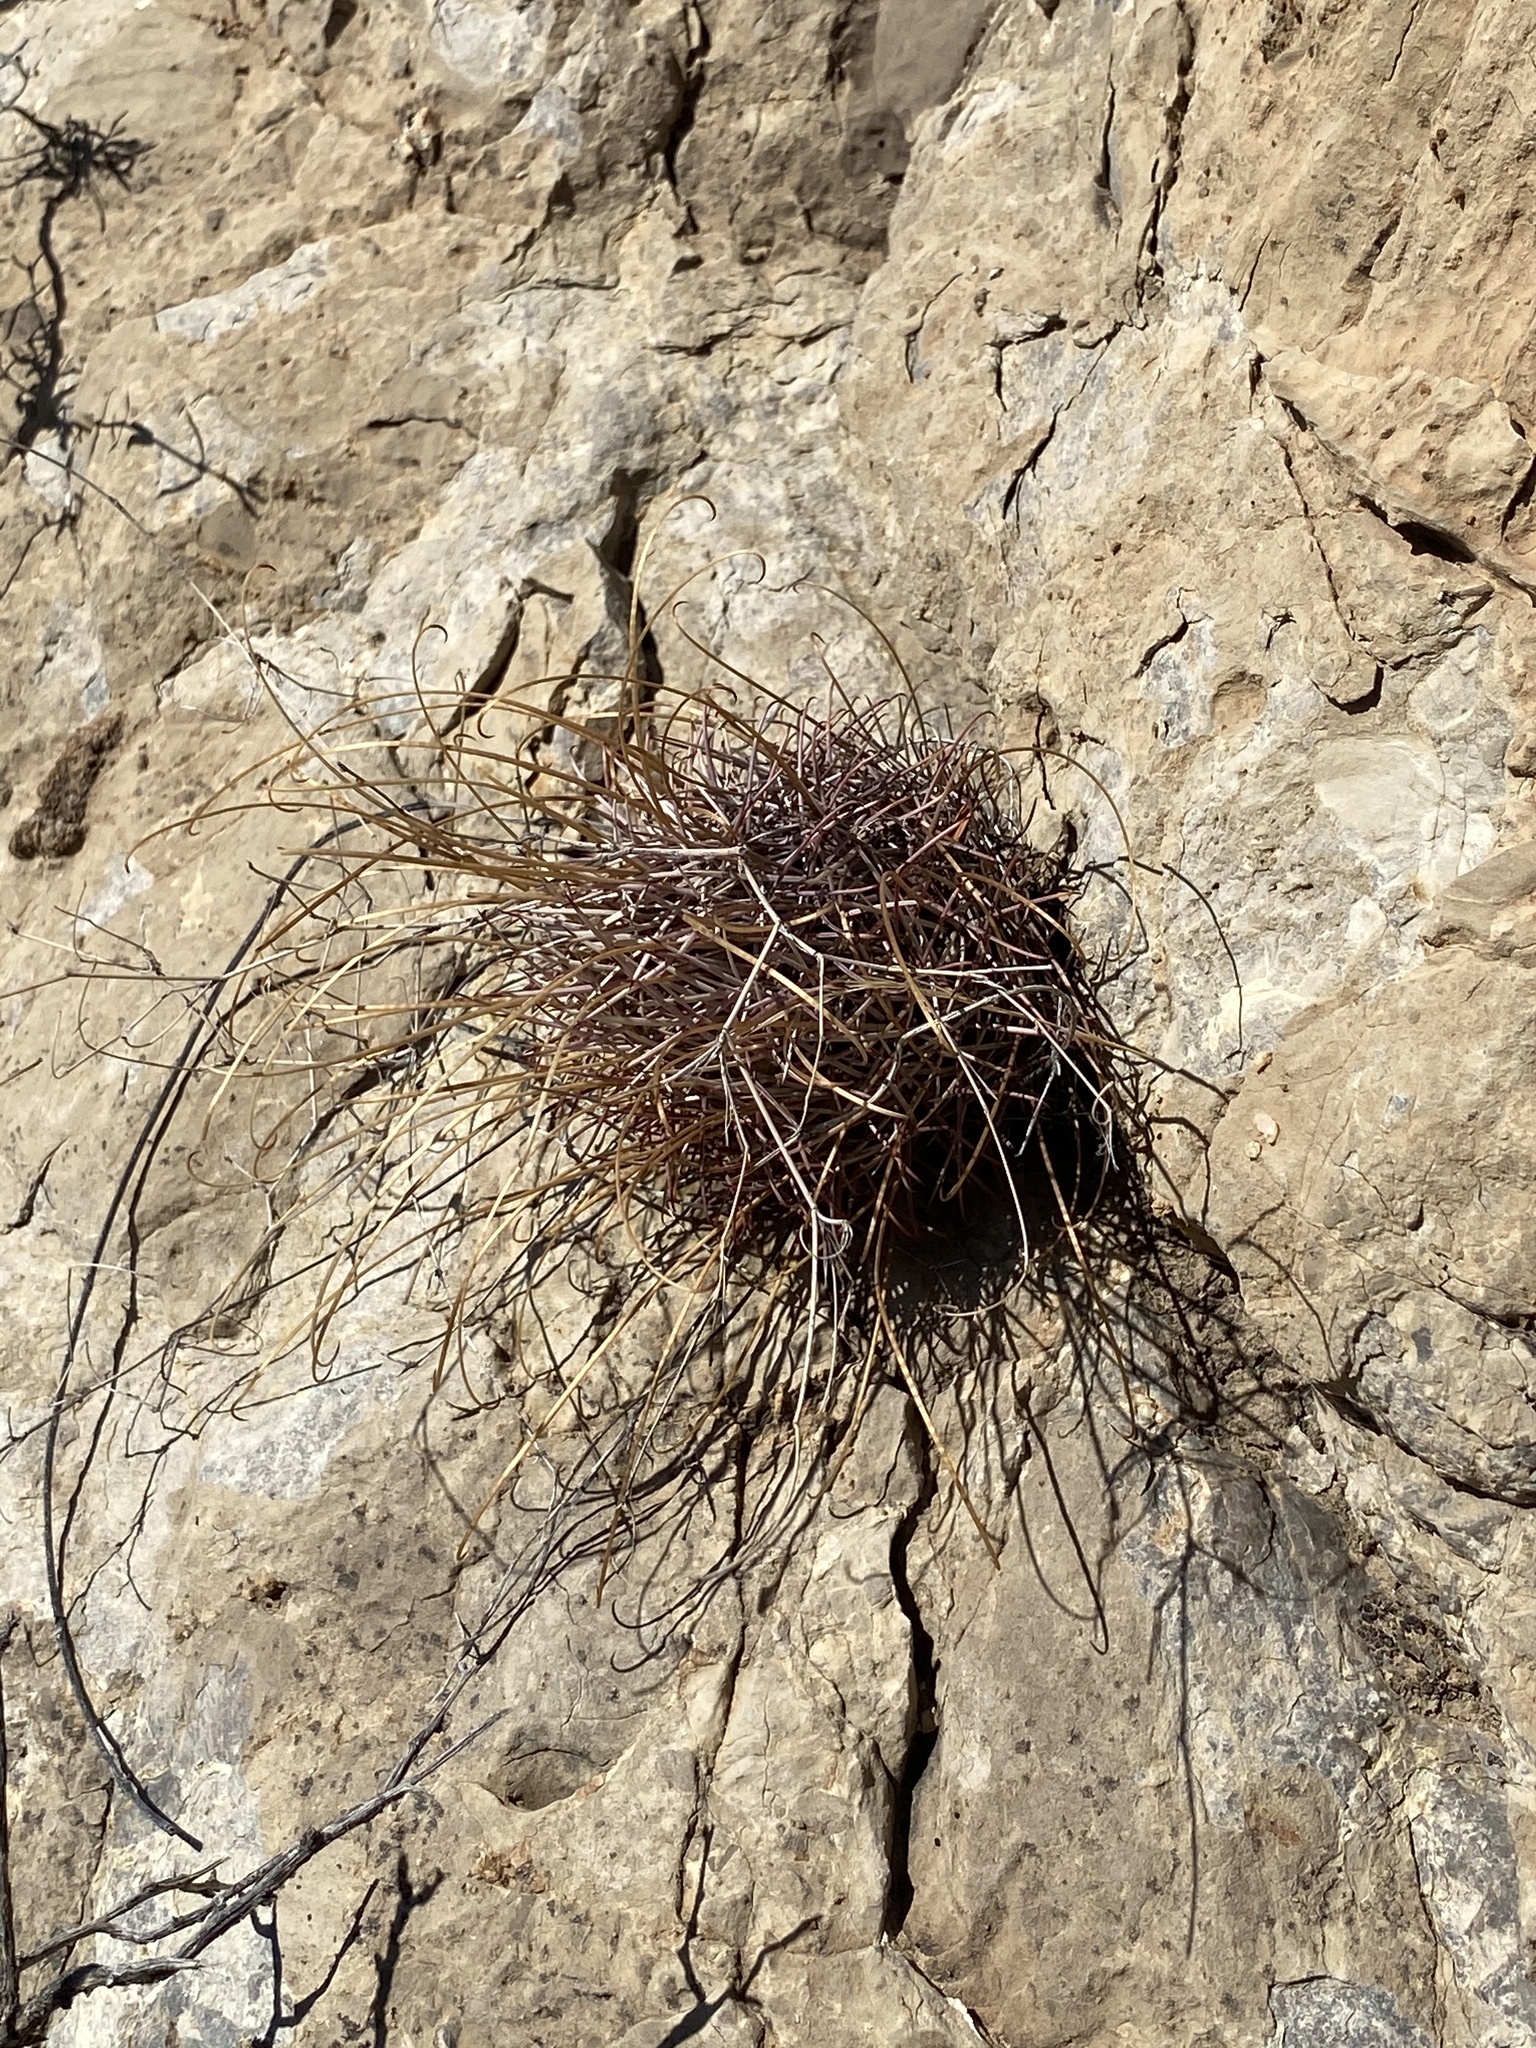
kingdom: Plantae
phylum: Tracheophyta
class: Magnoliopsida
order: Caryophyllales
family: Cactaceae
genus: Ferocactus
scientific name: Ferocactus uncinatus
